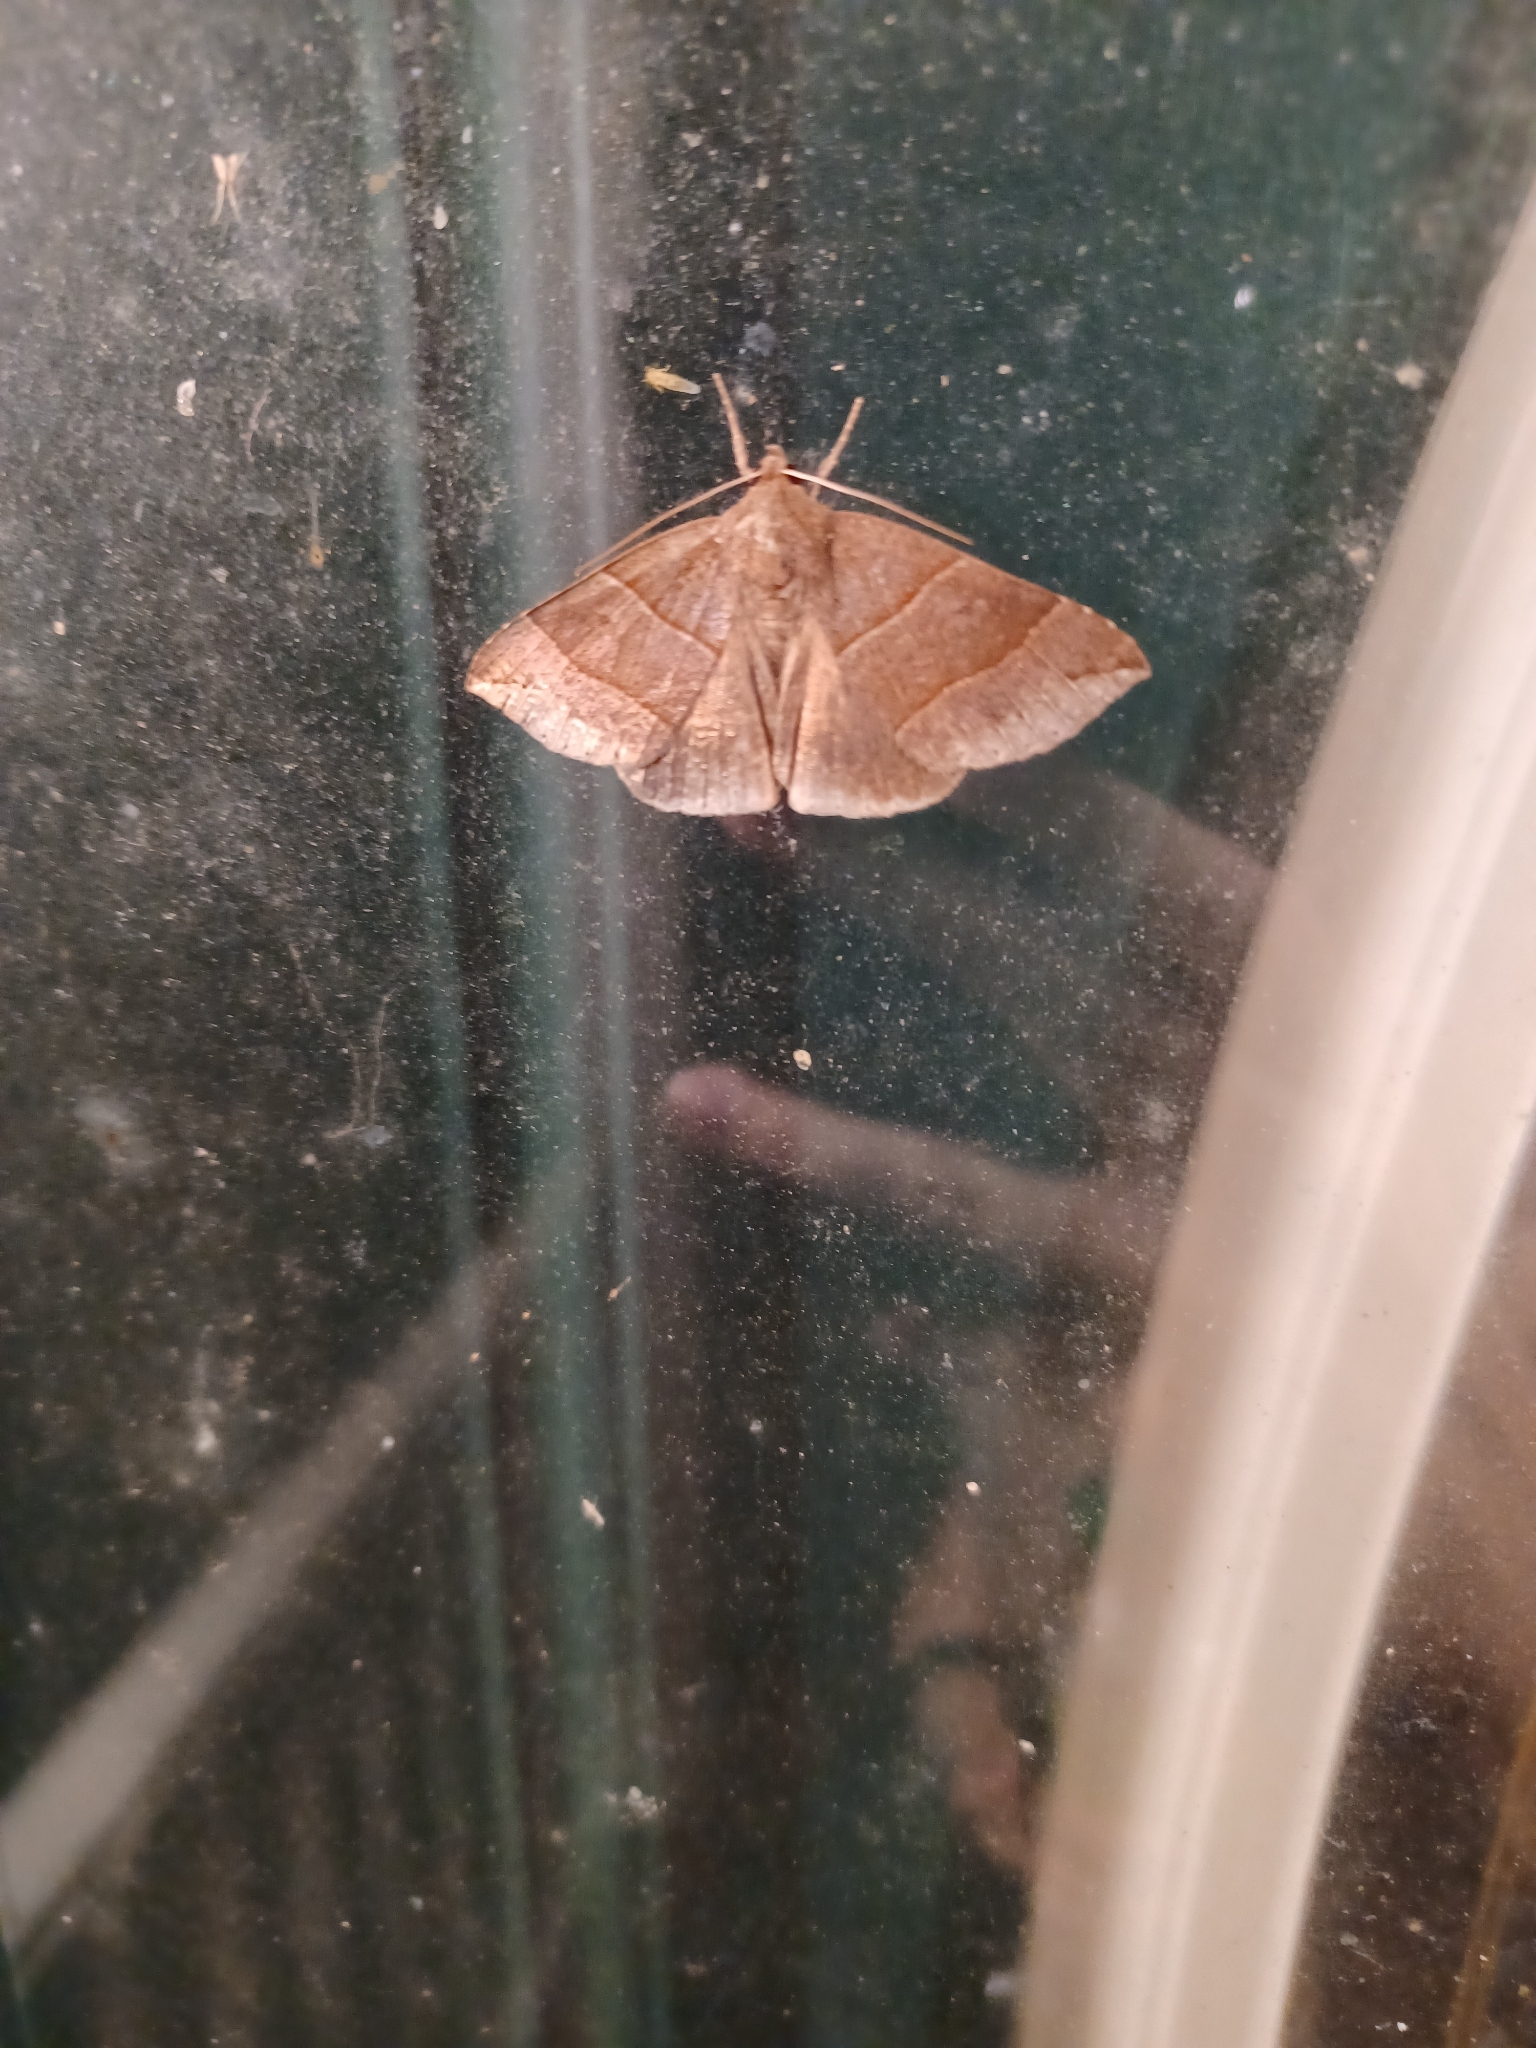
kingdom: Animalia
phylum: Arthropoda
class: Insecta
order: Lepidoptera
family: Erebidae
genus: Parallelia
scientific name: Parallelia bistriaris
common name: Maple looper moth
